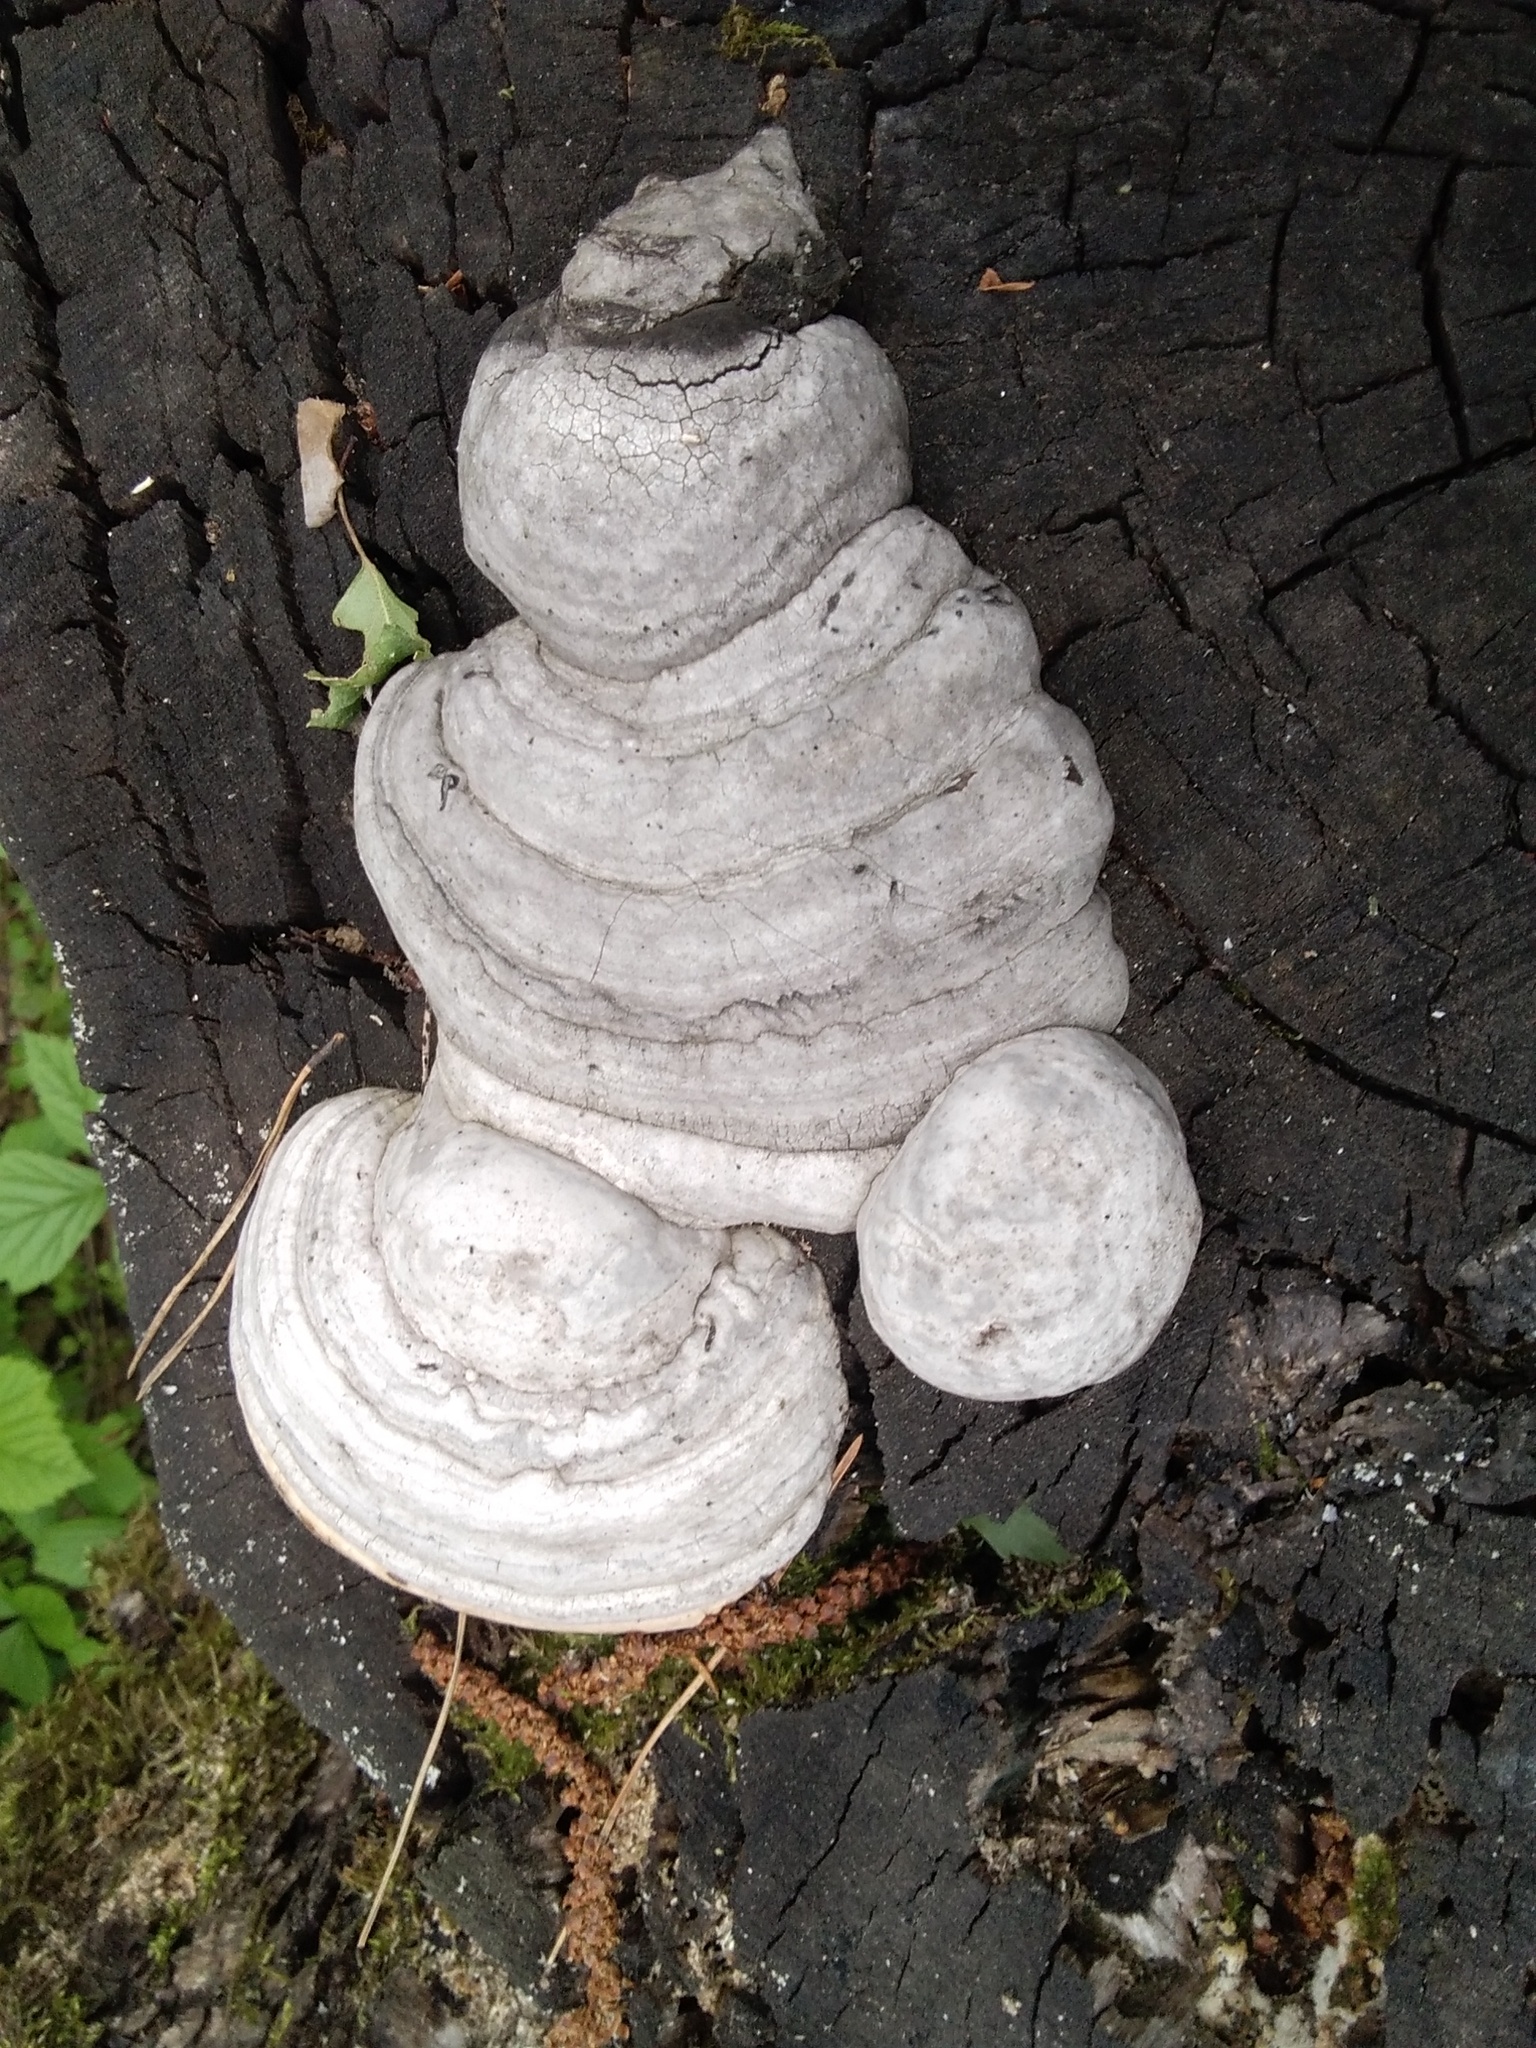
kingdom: Fungi
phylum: Basidiomycota
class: Agaricomycetes
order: Polyporales
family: Polyporaceae
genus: Fomes
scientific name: Fomes fomentarius
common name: Hoof fungus
